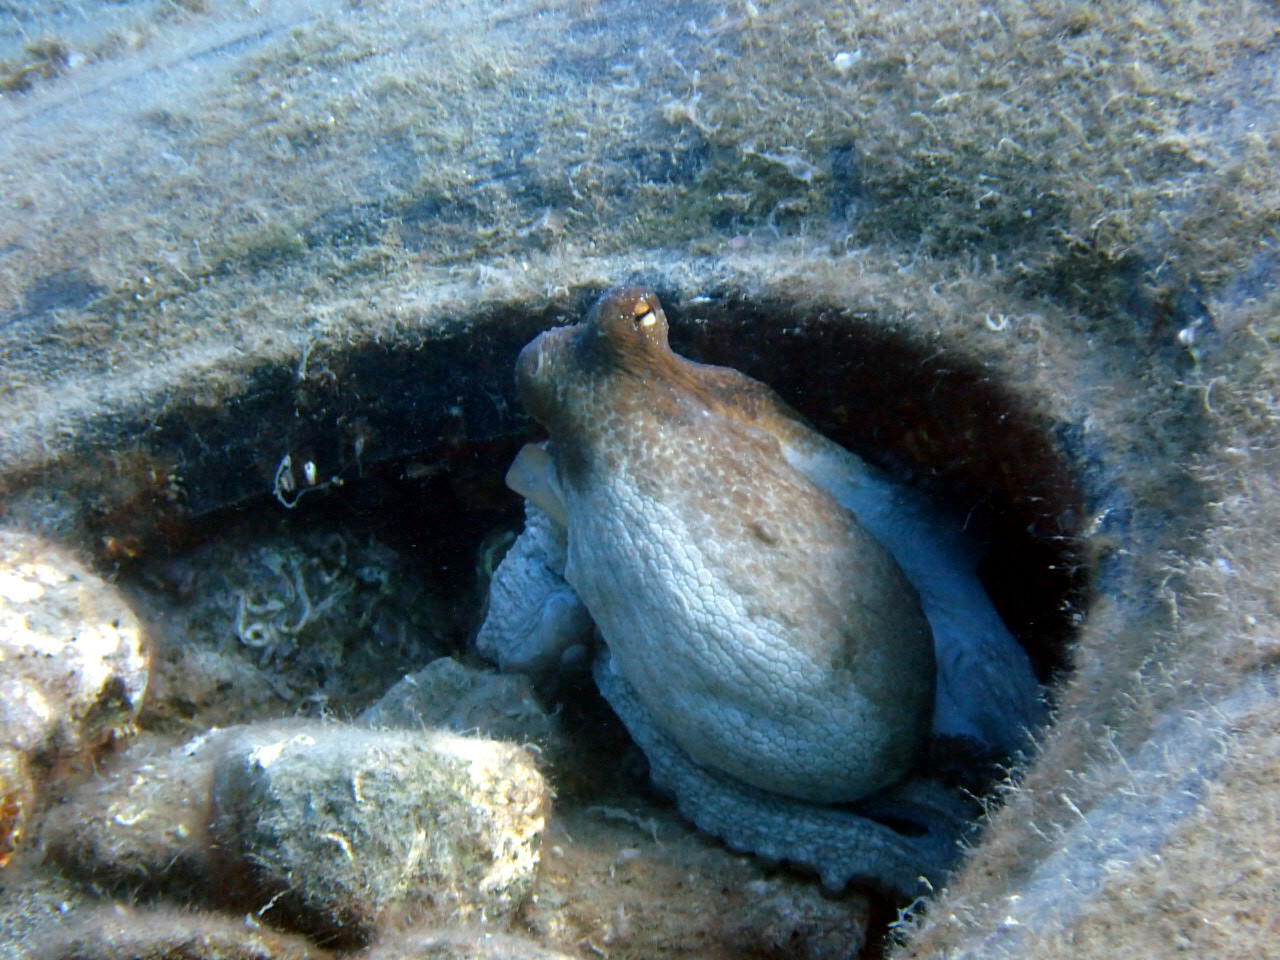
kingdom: Animalia
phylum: Mollusca
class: Cephalopoda
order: Octopoda
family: Octopodidae
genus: Octopus
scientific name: Octopus vulgaris
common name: Common octopus
